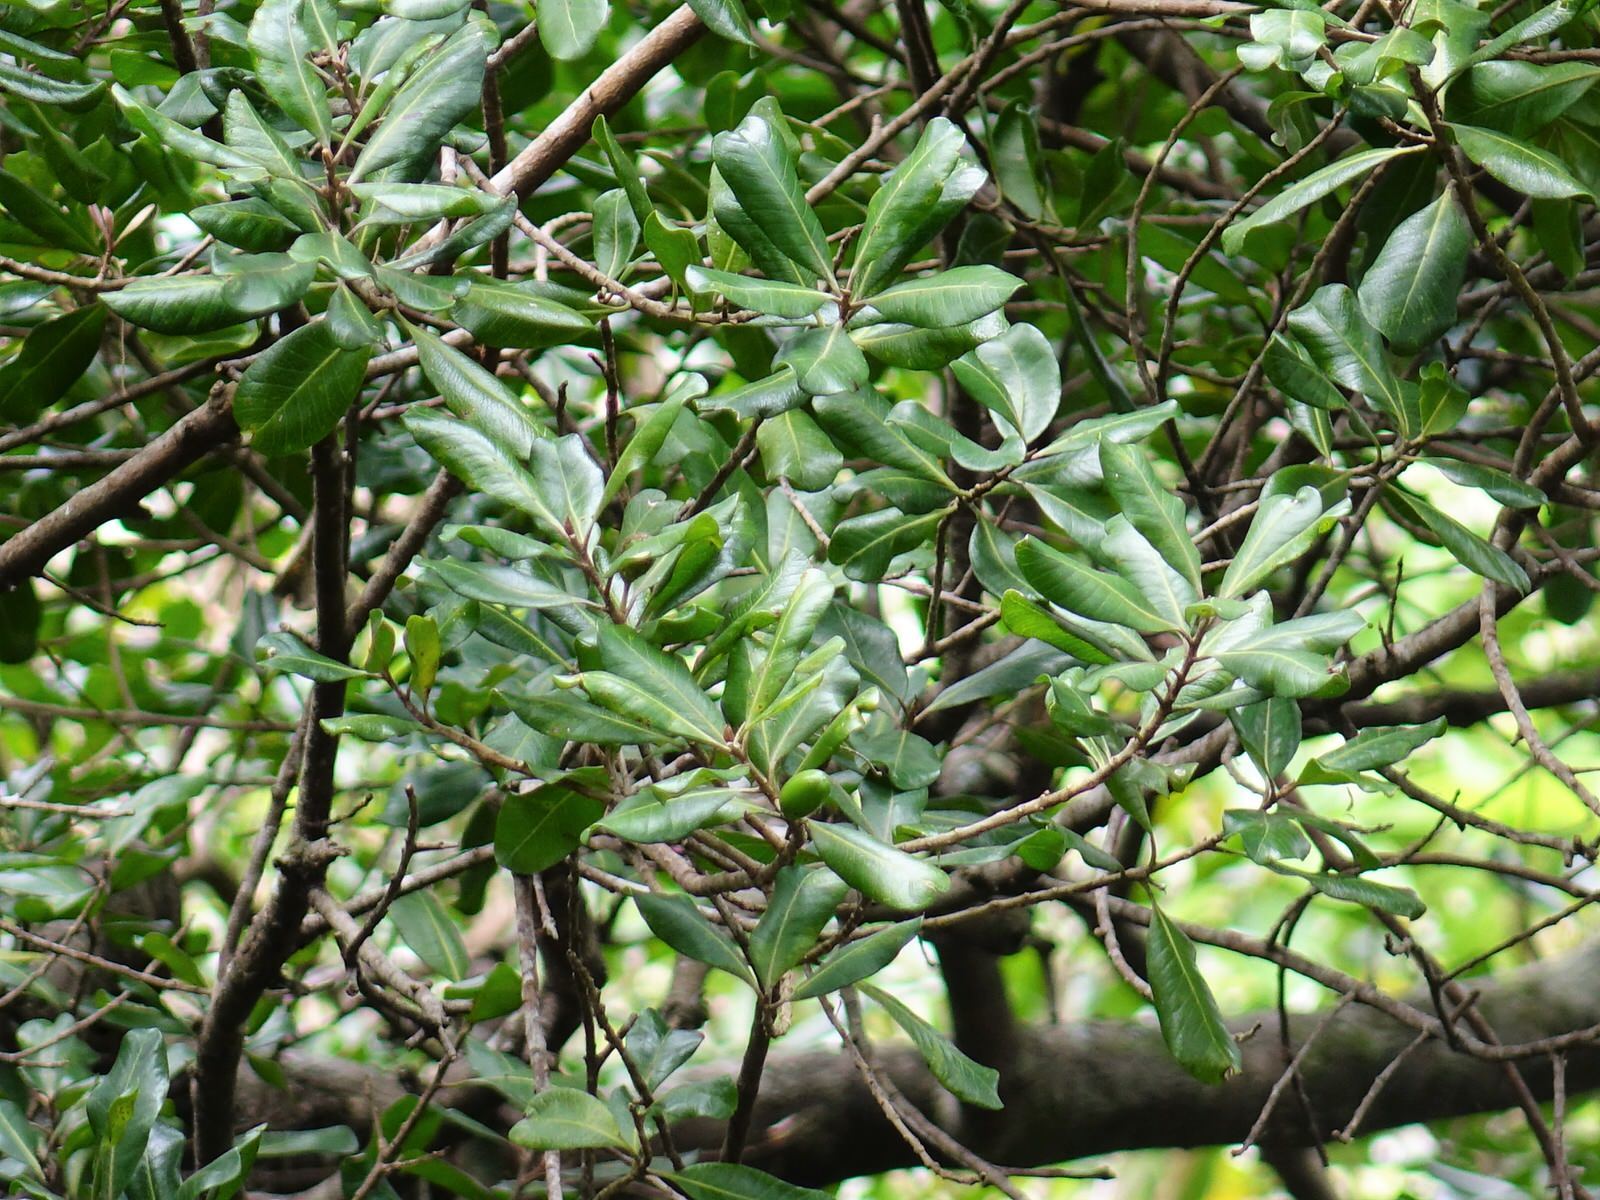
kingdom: Plantae
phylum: Tracheophyta
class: Magnoliopsida
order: Ericales
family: Sapotaceae
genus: Planchonella
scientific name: Planchonella costata
